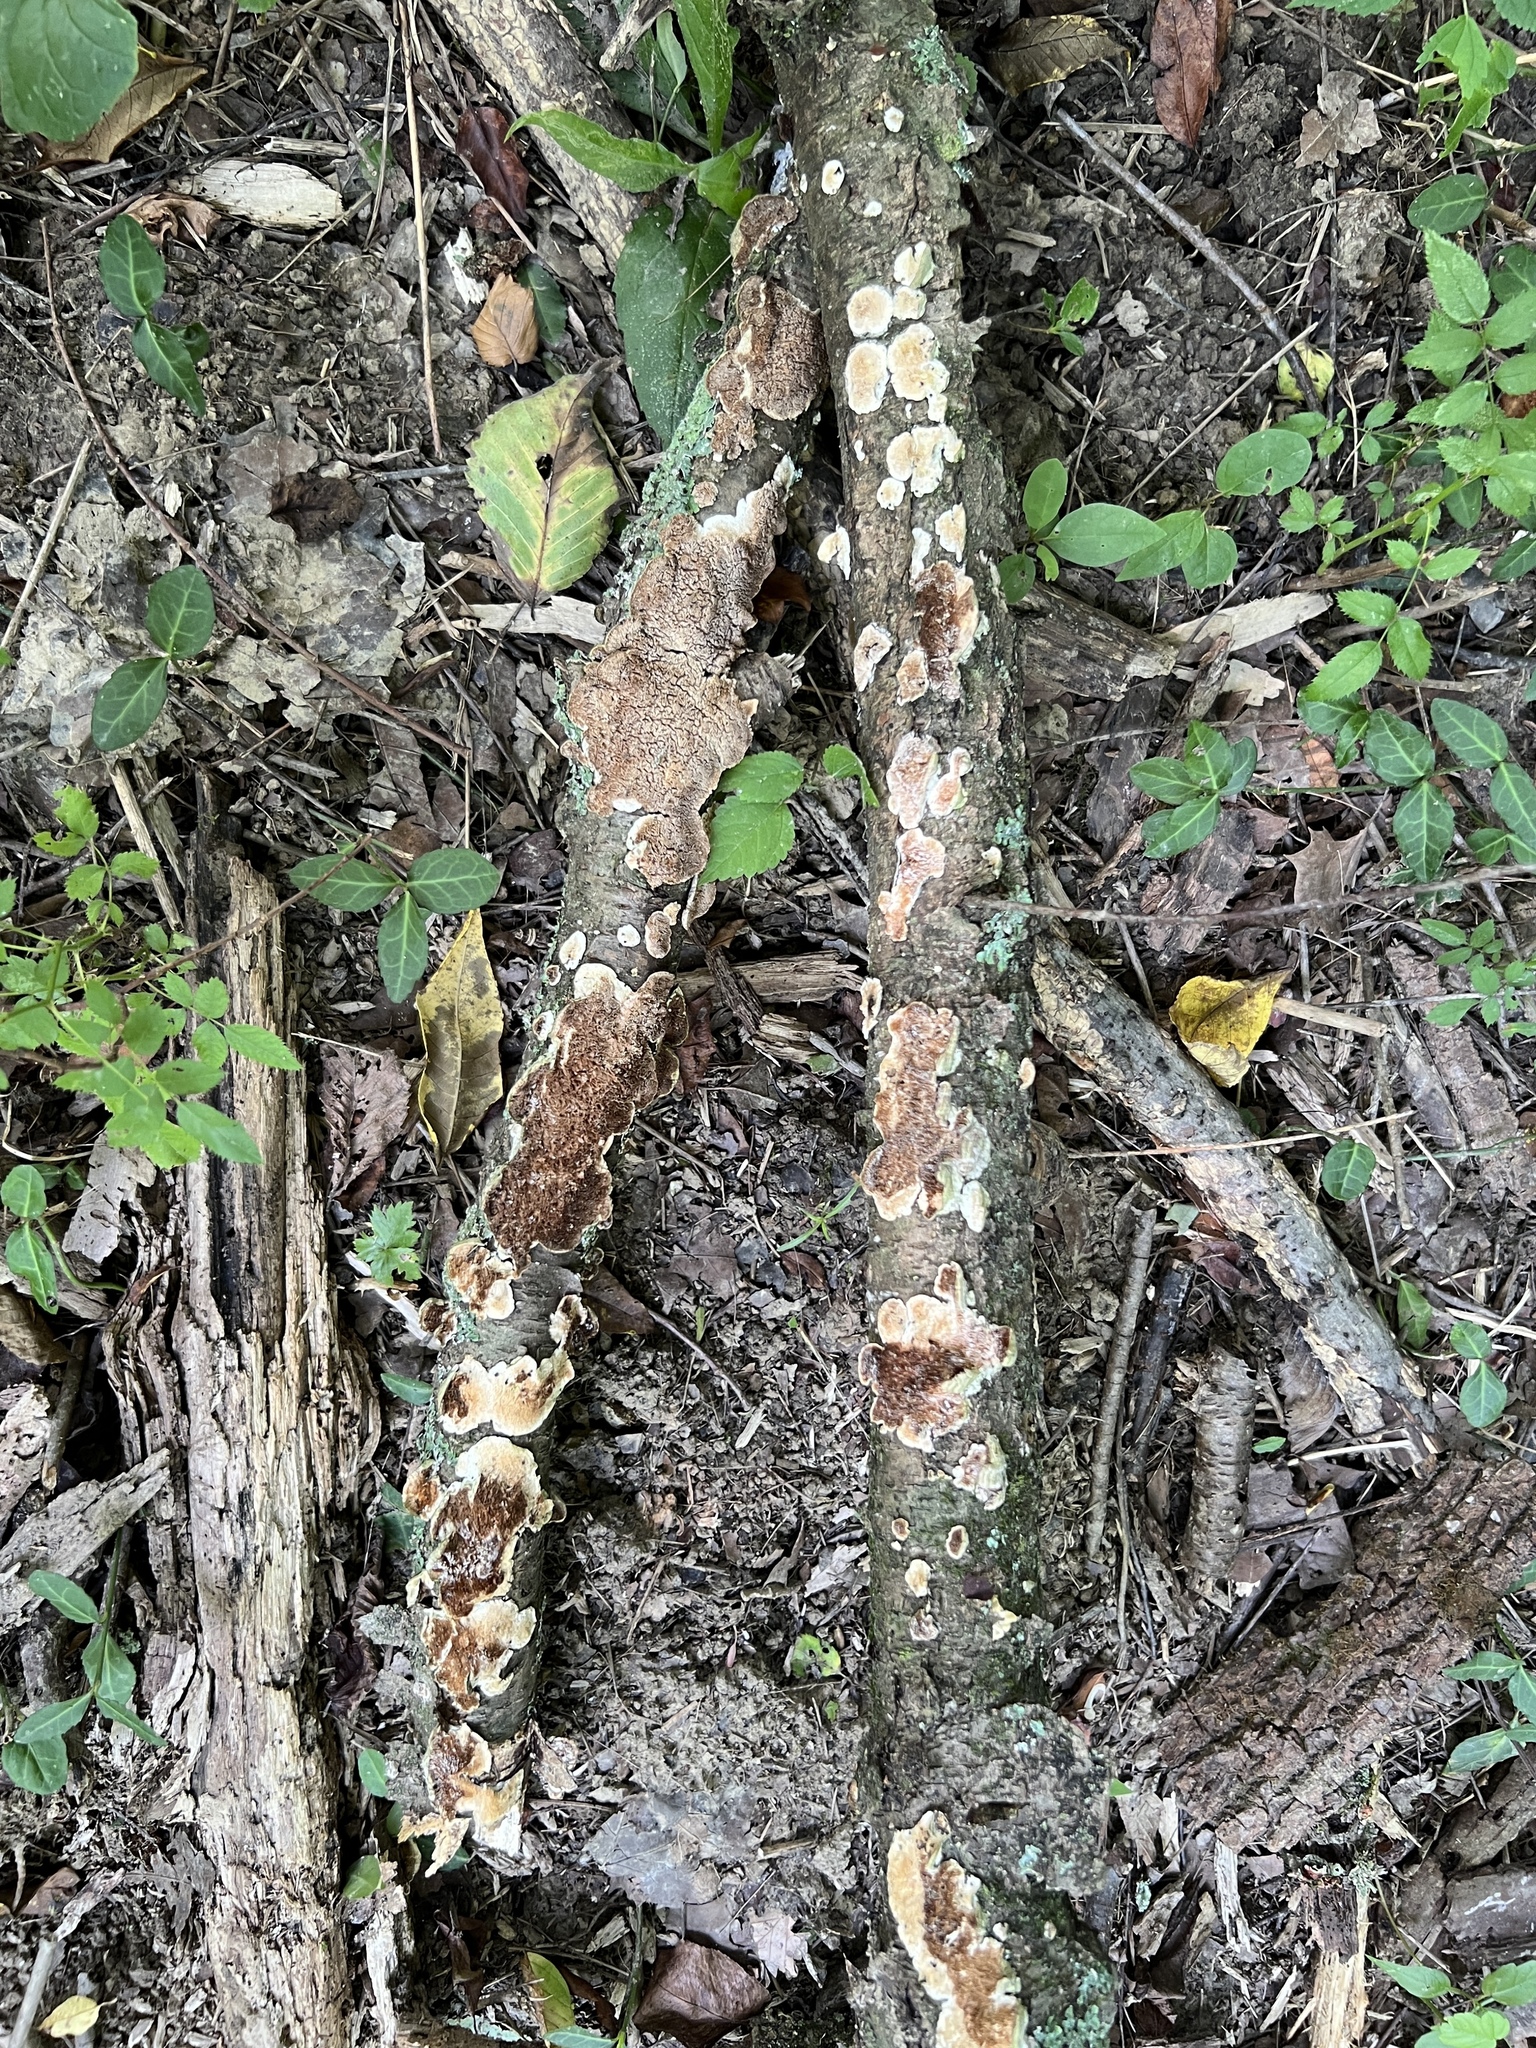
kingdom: Fungi
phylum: Basidiomycota
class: Agaricomycetes
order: Hymenochaetales
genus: Trichaptum
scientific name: Trichaptum biforme
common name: Violet-toothed polypore
